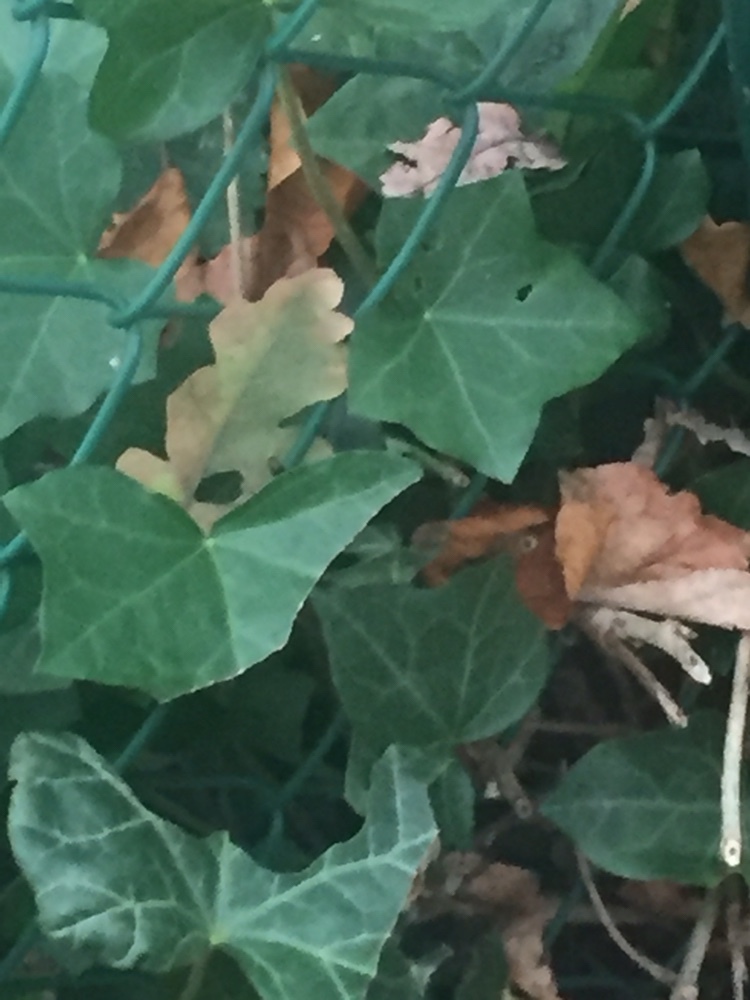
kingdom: Plantae
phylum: Tracheophyta
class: Magnoliopsida
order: Apiales
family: Araliaceae
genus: Hedera
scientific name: Hedera helix
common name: Ivy
